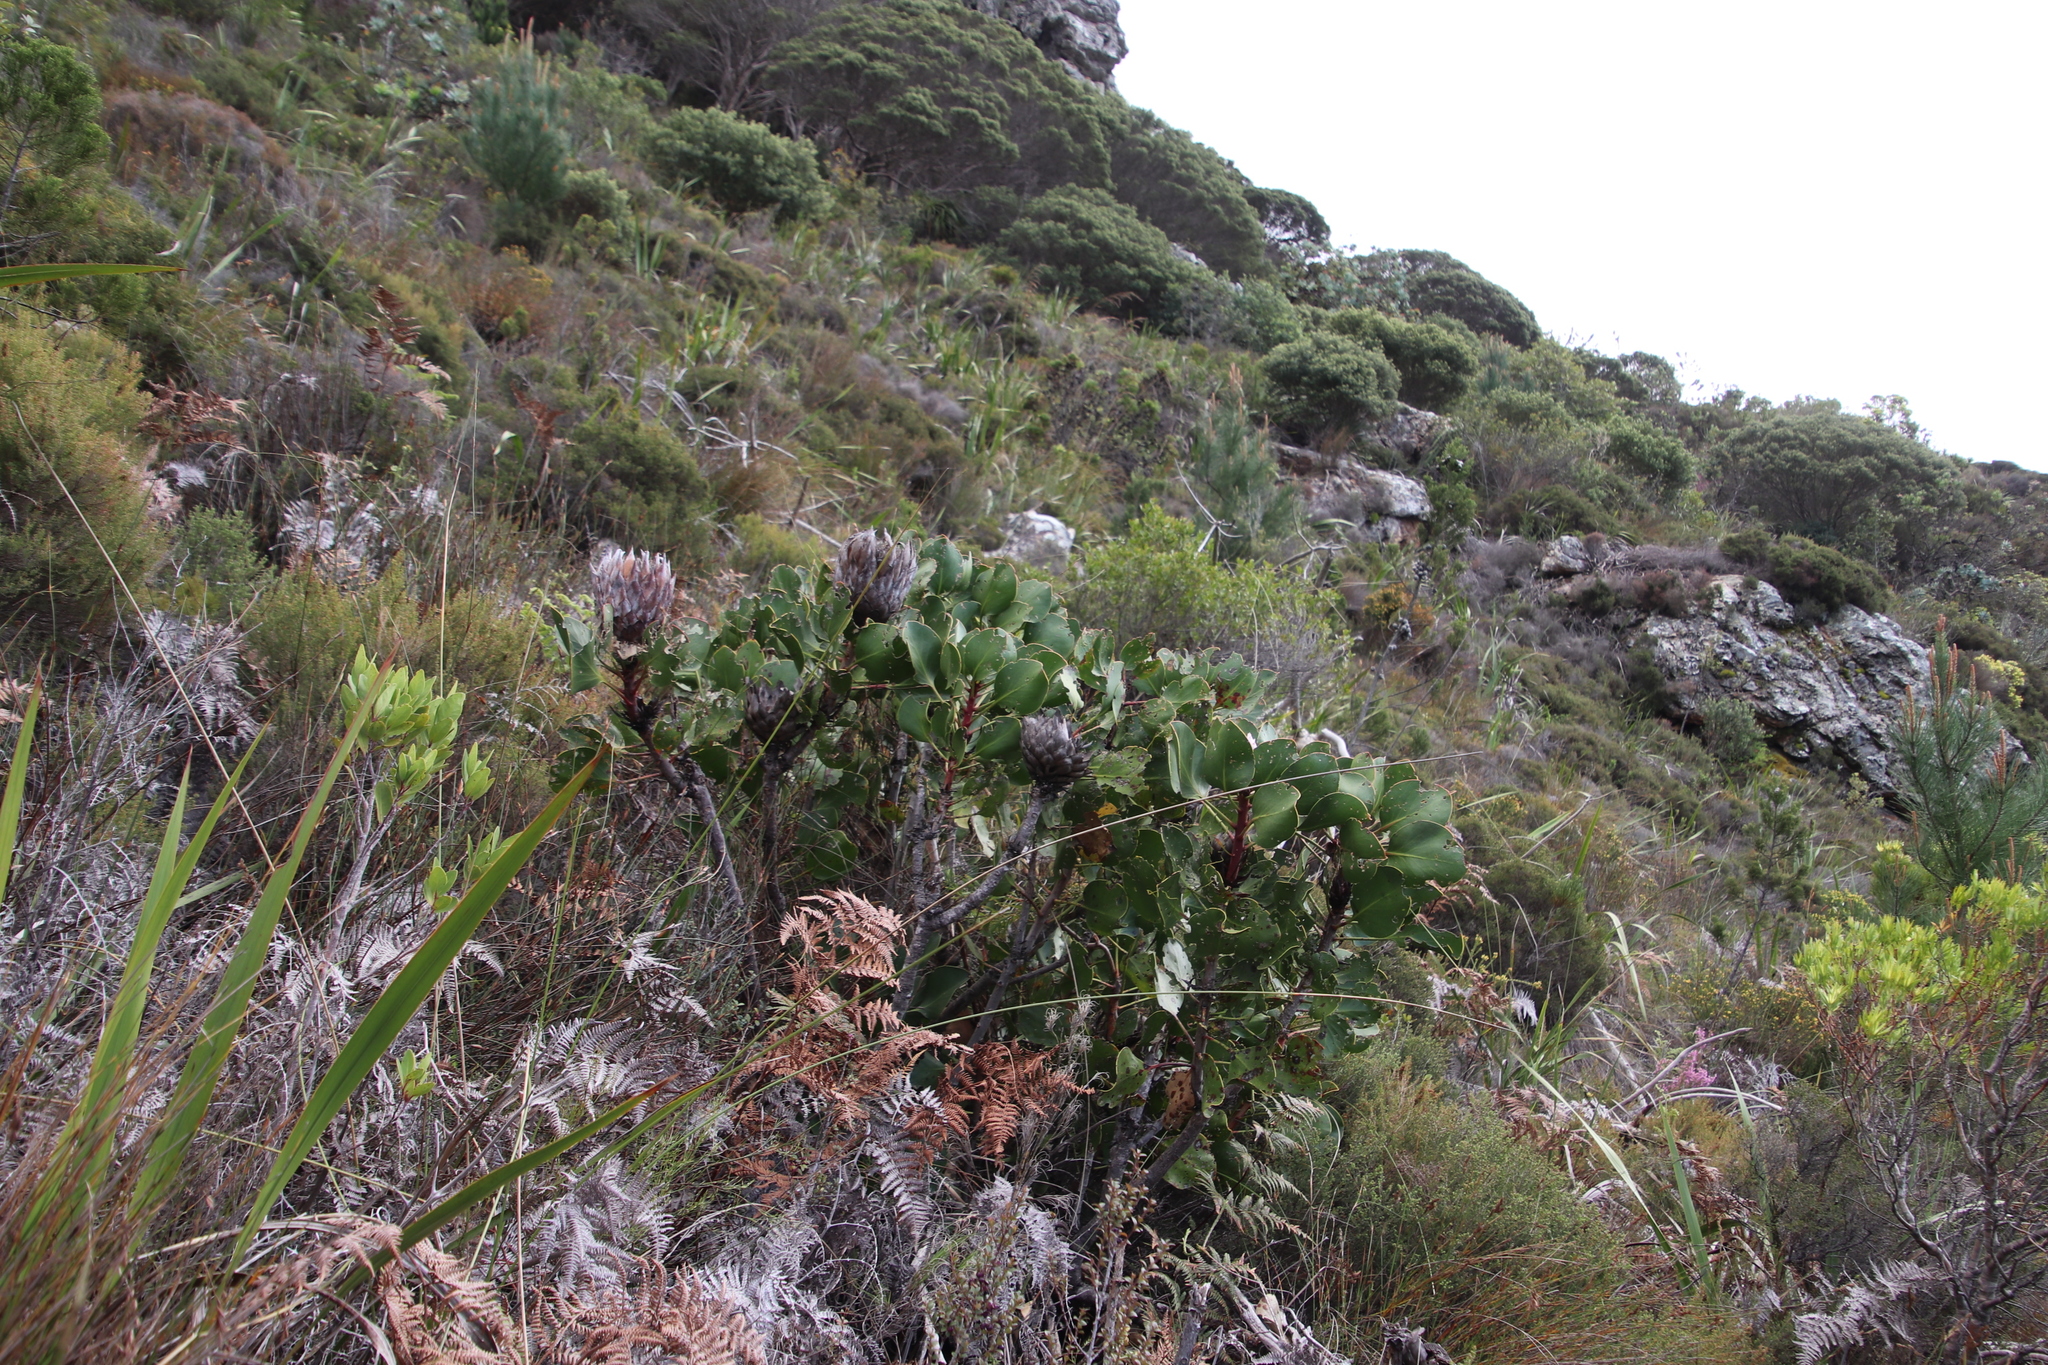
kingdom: Plantae
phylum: Tracheophyta
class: Magnoliopsida
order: Proteales
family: Proteaceae
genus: Protea
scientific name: Protea cynaroides
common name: King protea
